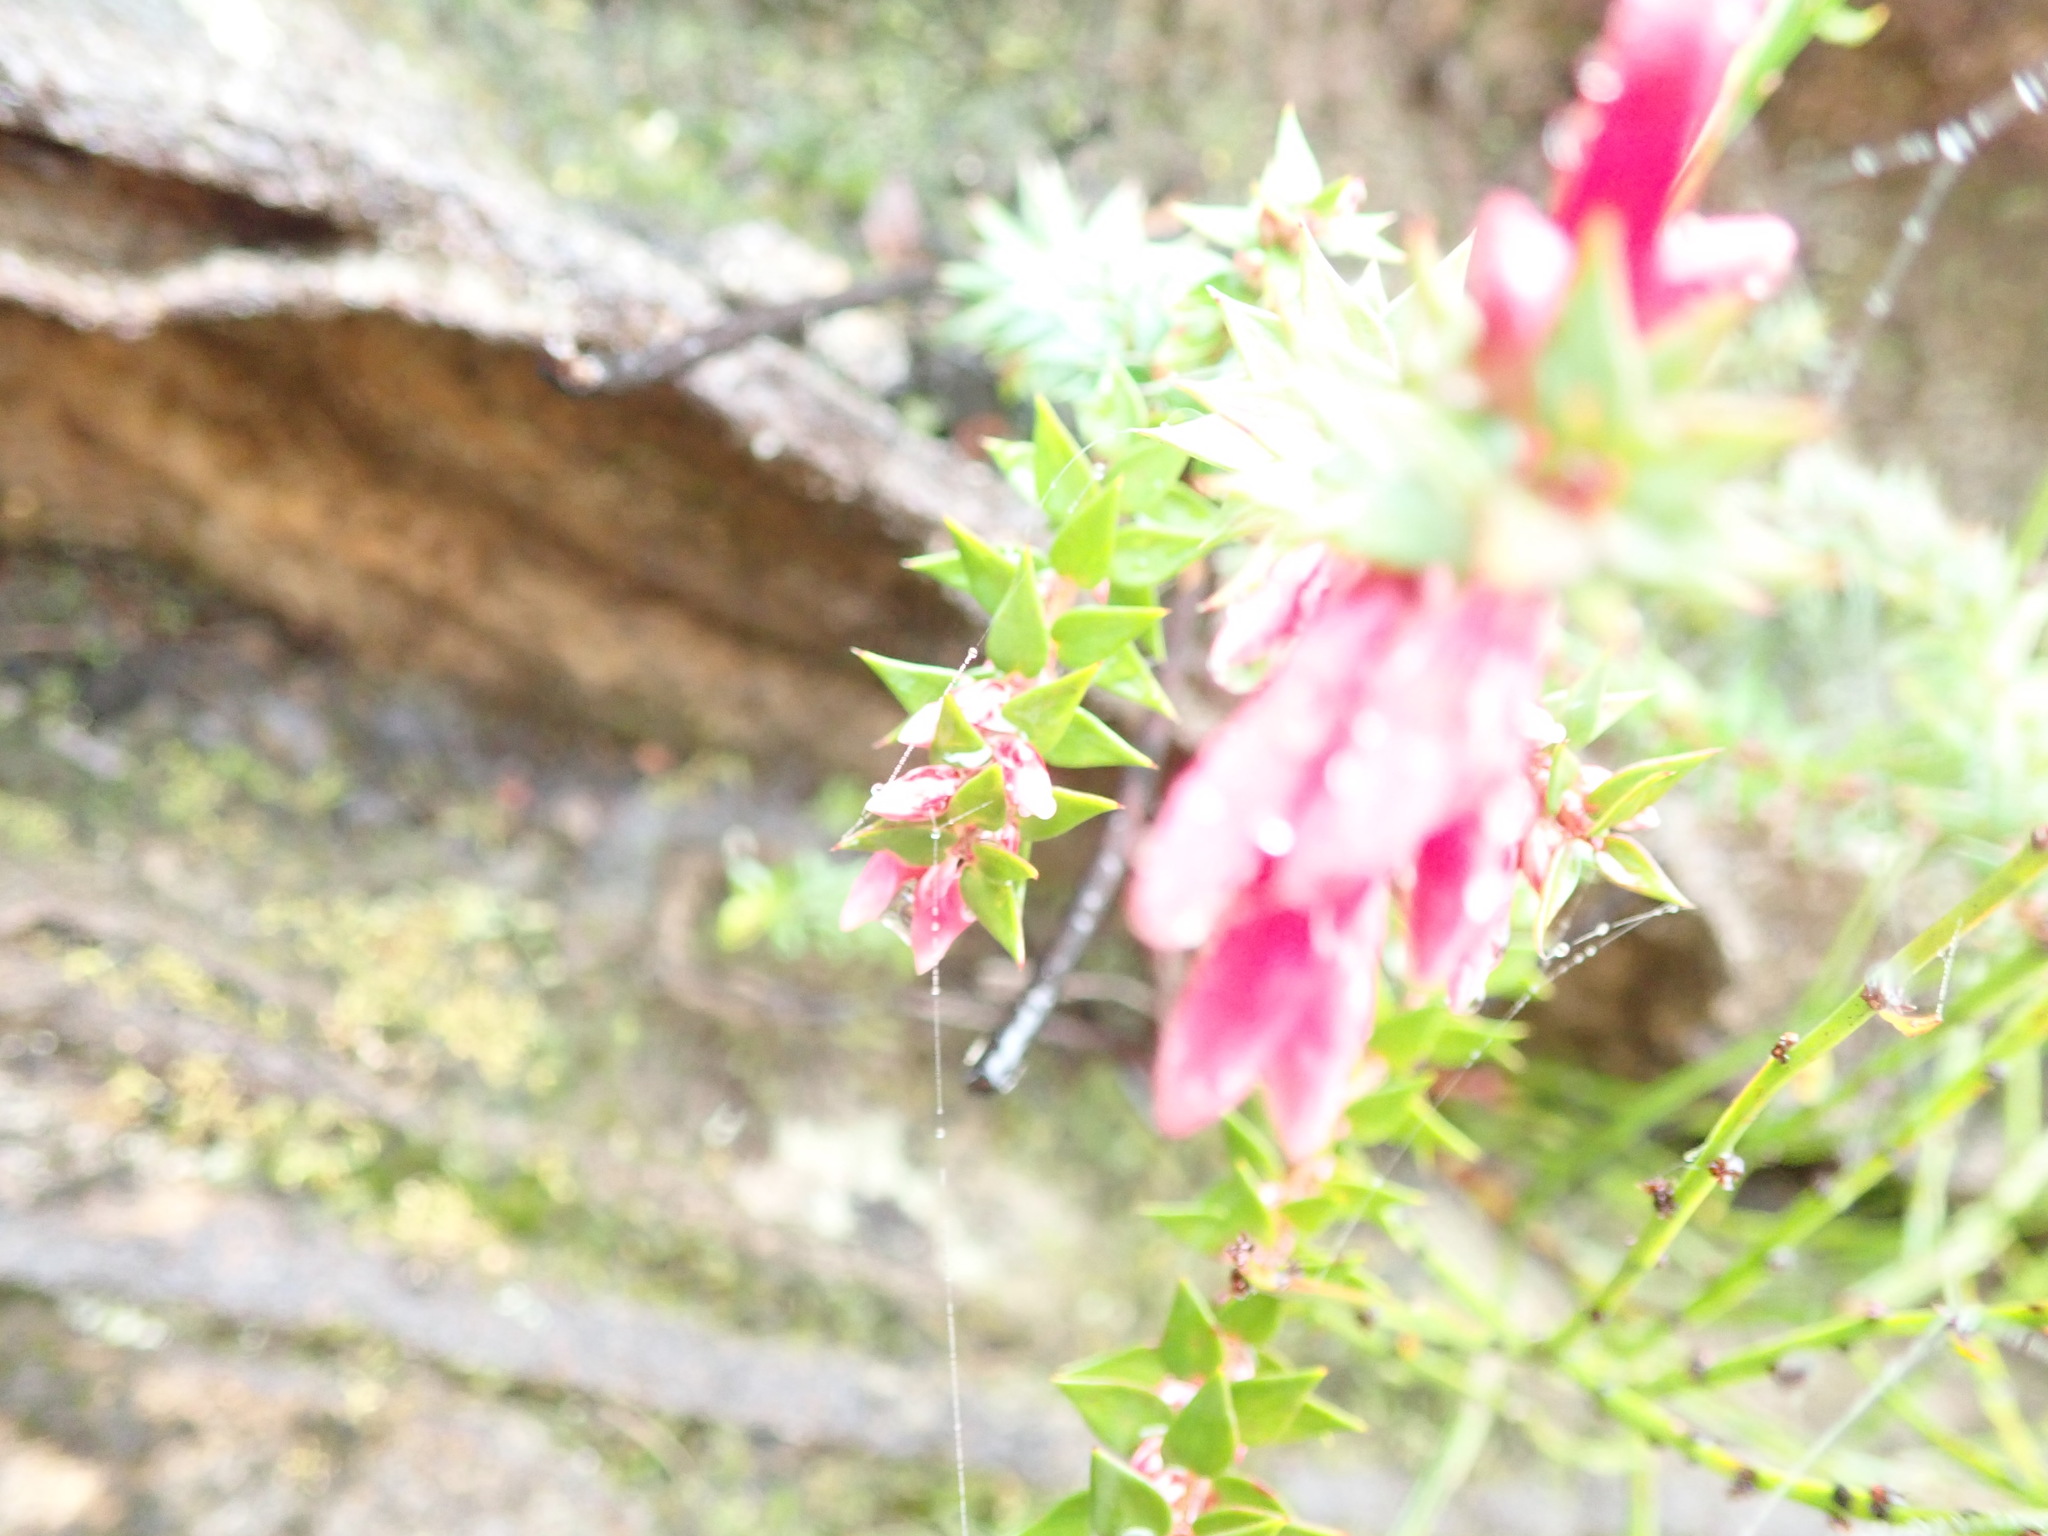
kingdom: Plantae
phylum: Tracheophyta
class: Magnoliopsida
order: Ericales
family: Ericaceae
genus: Epacris
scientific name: Epacris reclinata
